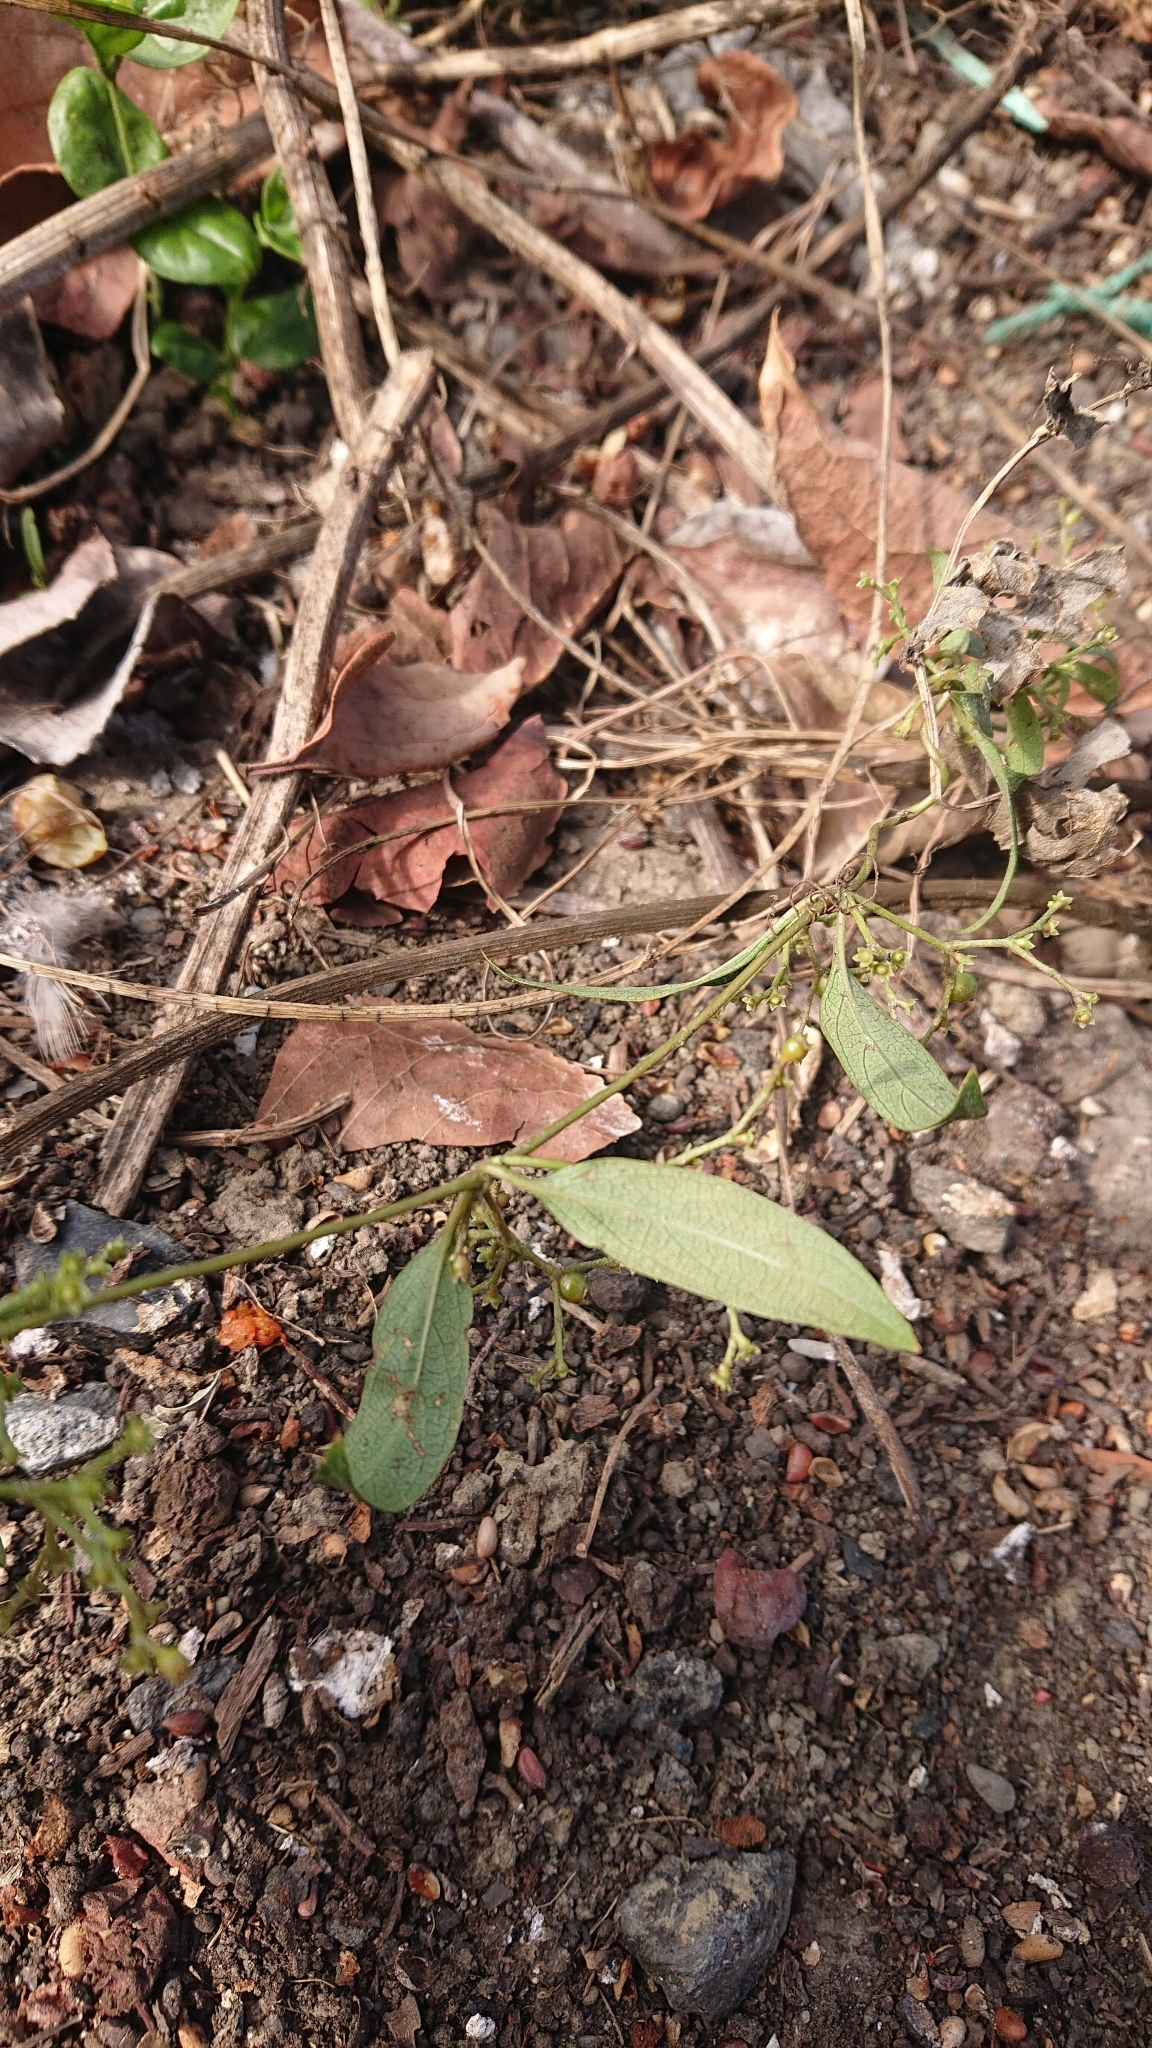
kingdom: Plantae
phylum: Tracheophyta
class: Magnoliopsida
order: Gentianales
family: Rubiaceae
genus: Paederia
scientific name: Paederia foetida
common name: Stinkvine
